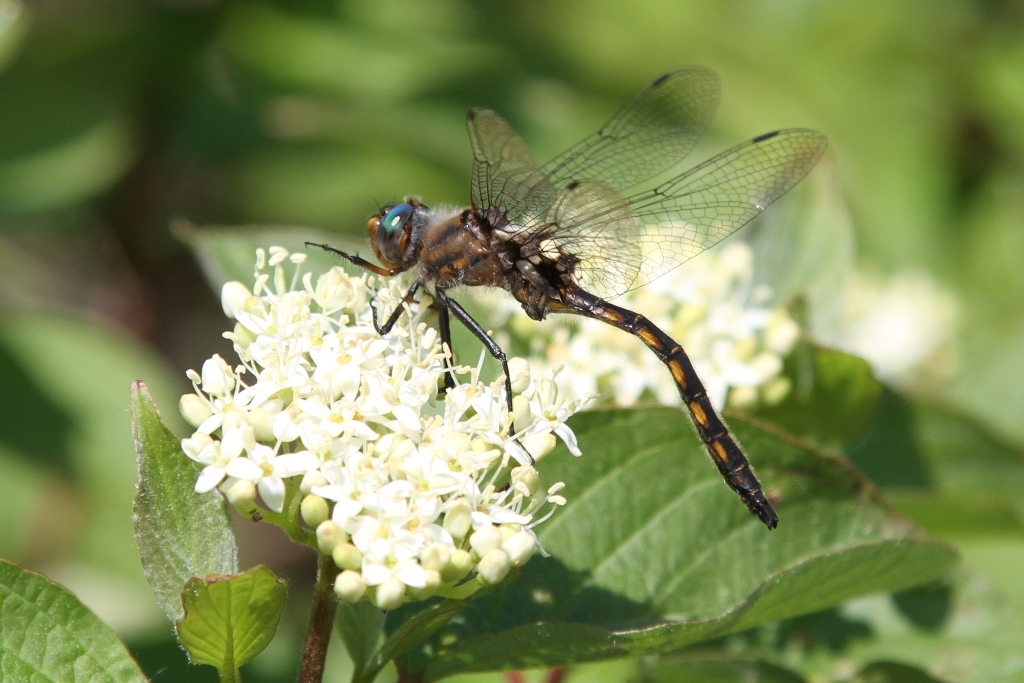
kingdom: Animalia
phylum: Arthropoda
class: Insecta
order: Odonata
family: Corduliidae
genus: Epitheca
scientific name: Epitheca canis
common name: Beaverpond baskettail
